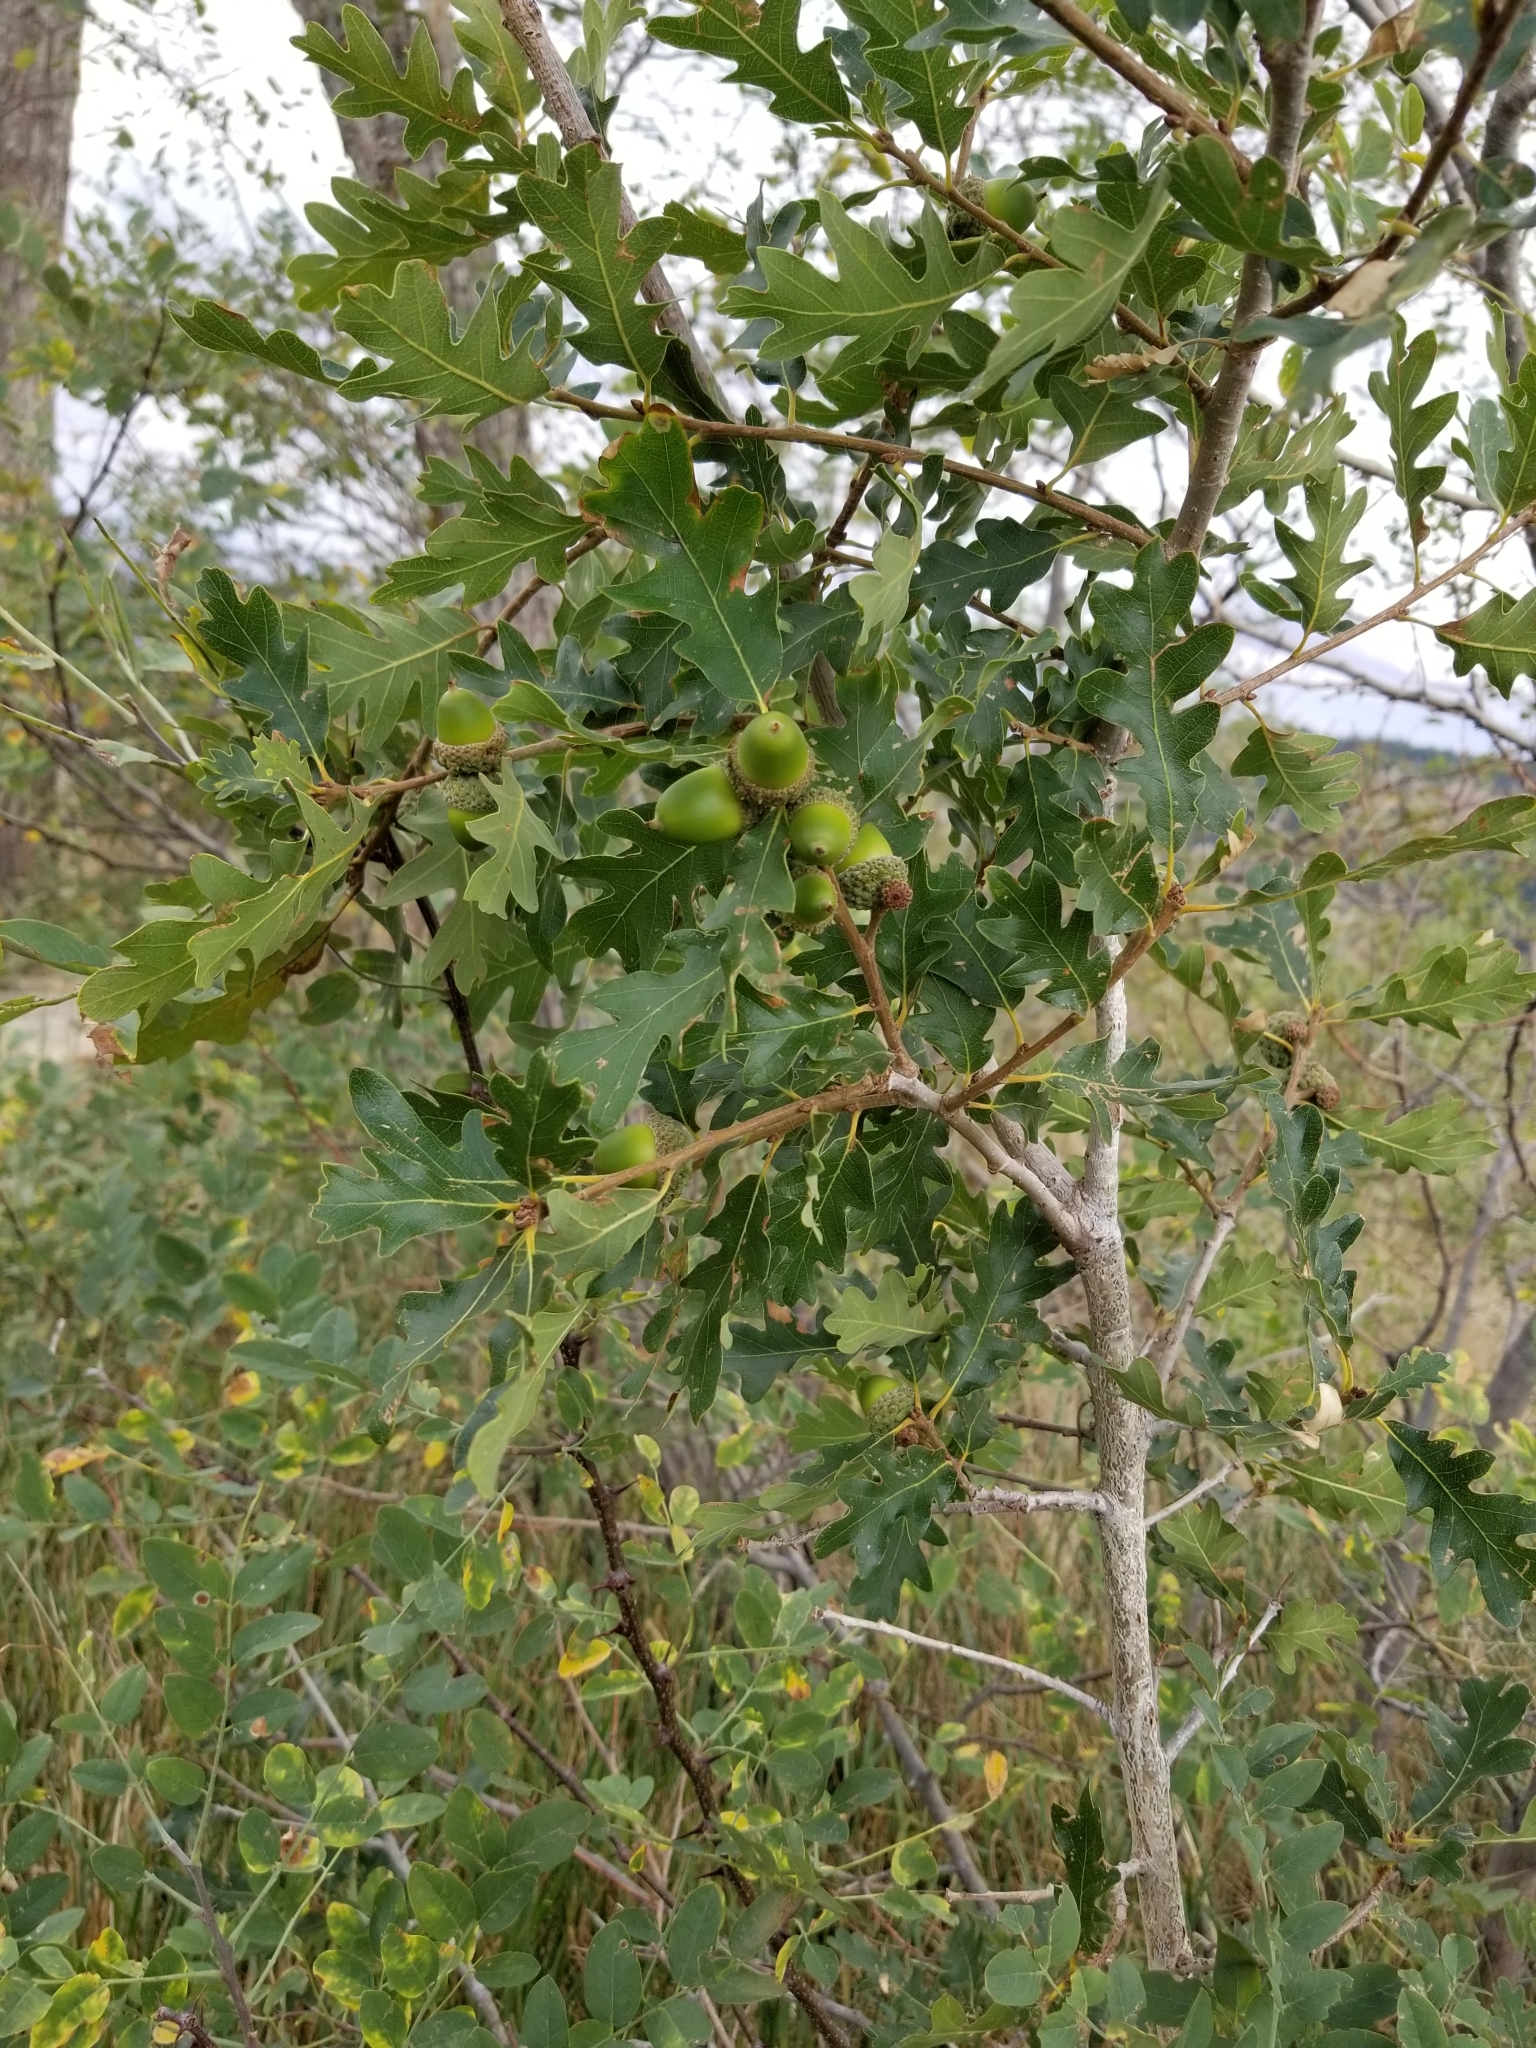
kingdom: Plantae
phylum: Tracheophyta
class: Magnoliopsida
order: Fagales
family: Fagaceae
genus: Quercus
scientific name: Quercus gambelii
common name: Gambel oak
